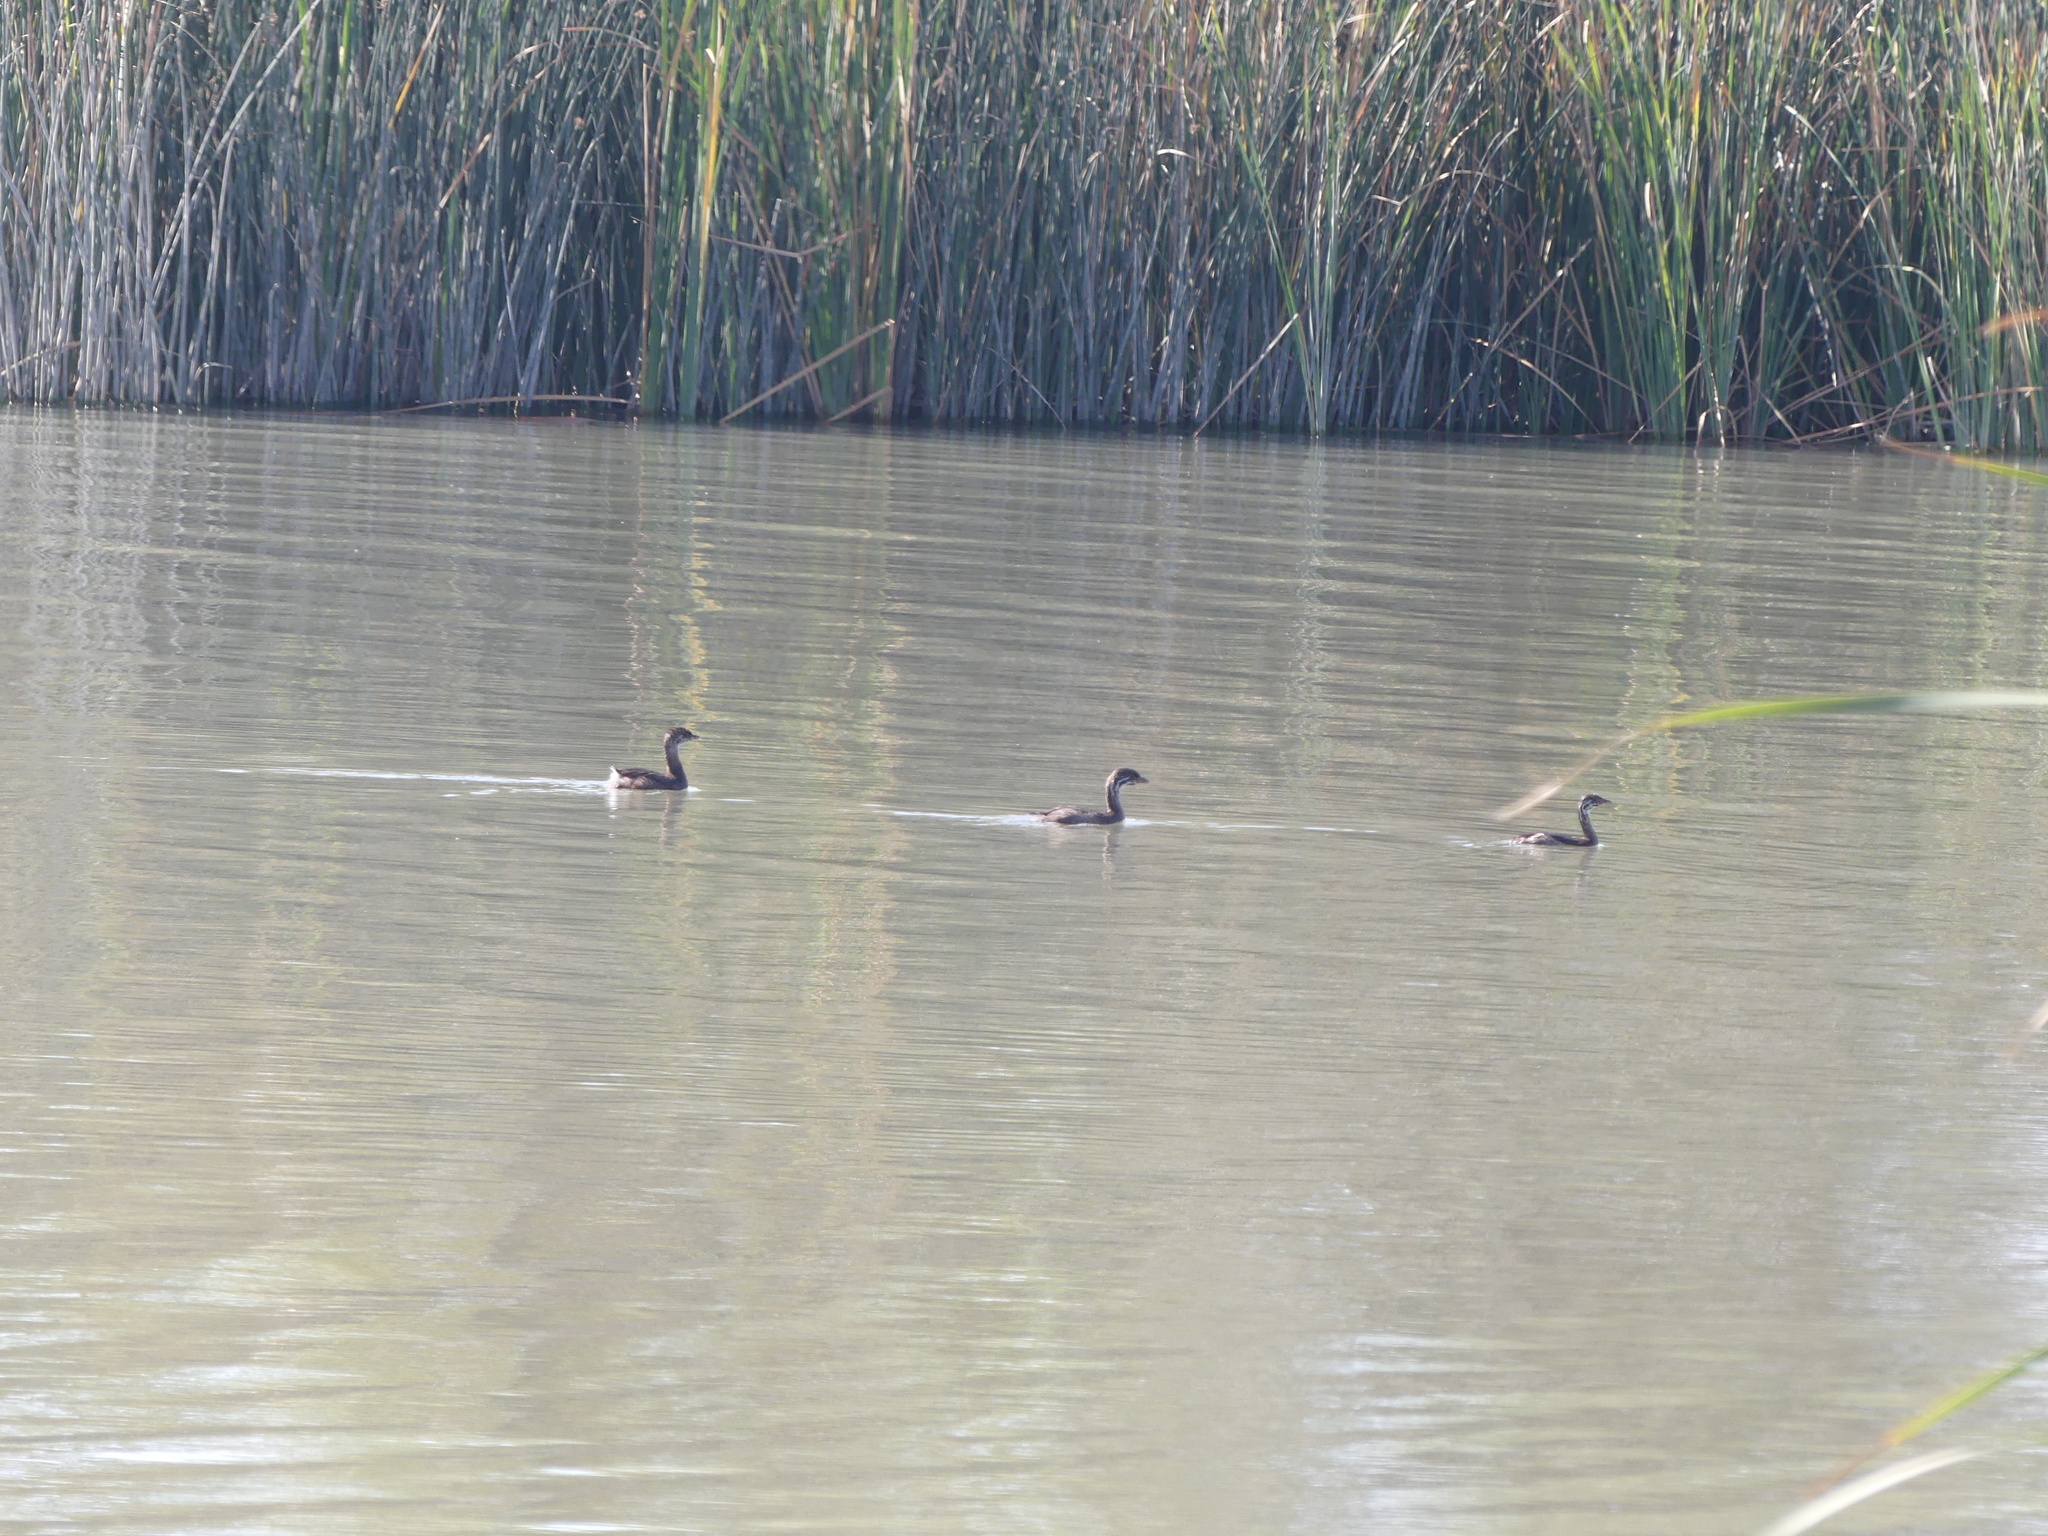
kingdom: Animalia
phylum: Chordata
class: Aves
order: Podicipediformes
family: Podicipedidae
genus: Podilymbus
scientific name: Podilymbus podiceps
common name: Pied-billed grebe
